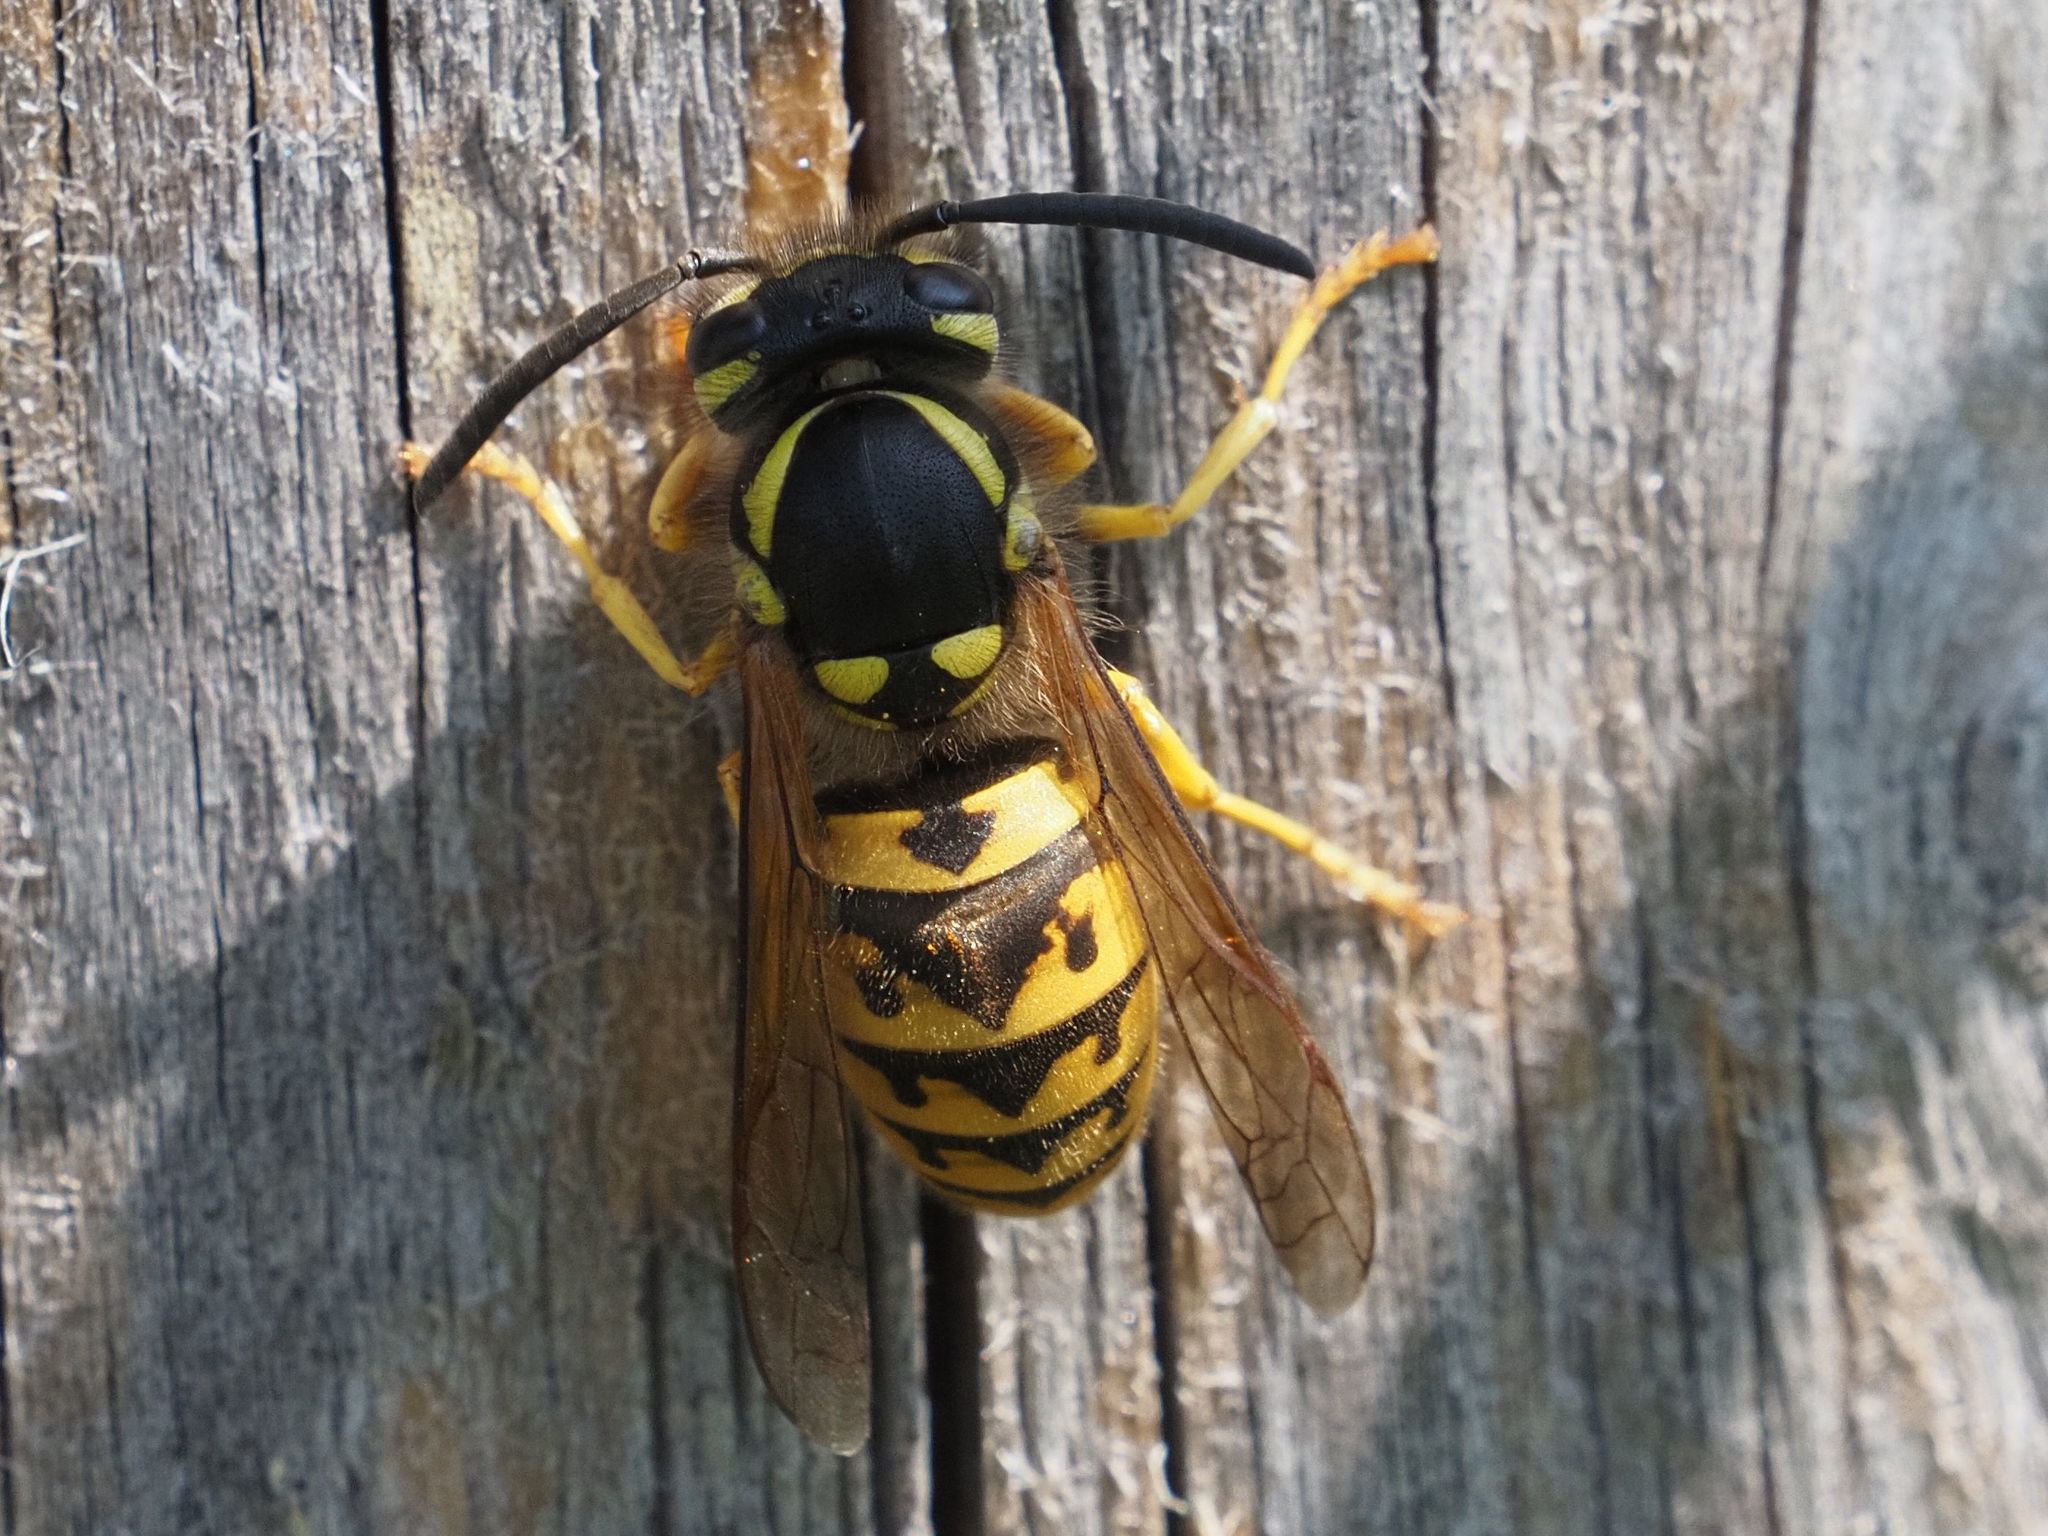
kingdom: Animalia
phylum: Arthropoda
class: Insecta
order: Hymenoptera
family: Vespidae
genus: Vespula
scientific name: Vespula germanica
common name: German wasp
